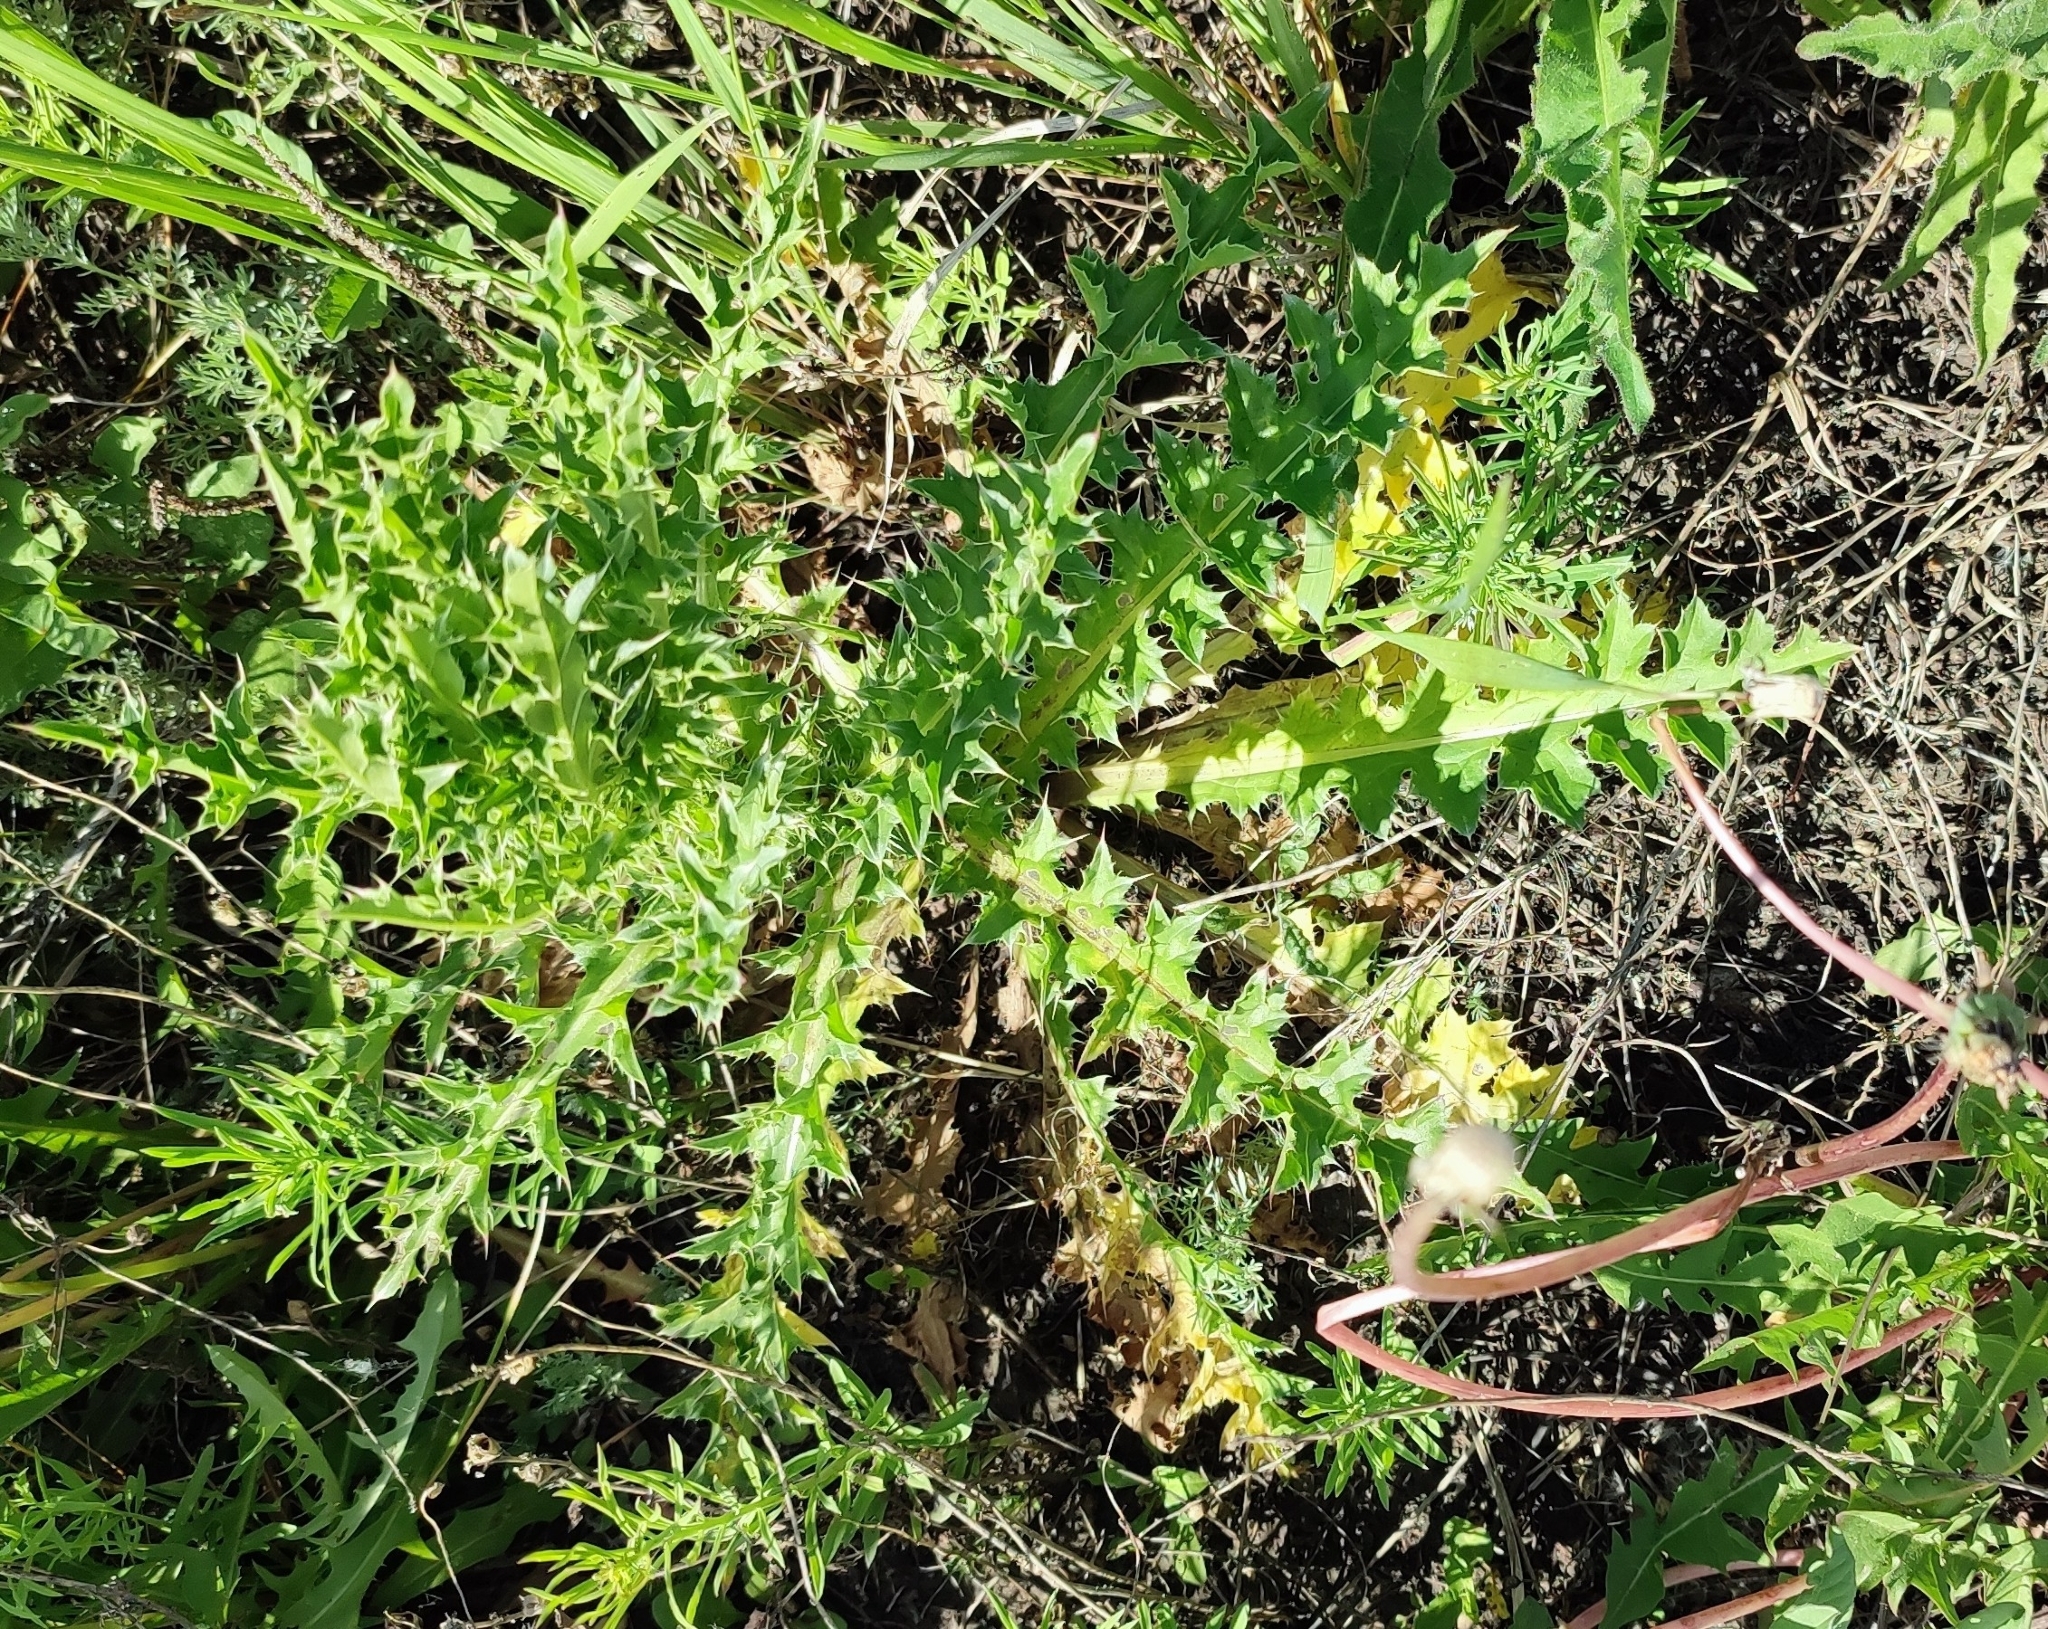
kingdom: Plantae
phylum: Tracheophyta
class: Magnoliopsida
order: Asterales
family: Asteraceae
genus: Carduus
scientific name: Carduus acanthoides
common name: Plumeless thistle
